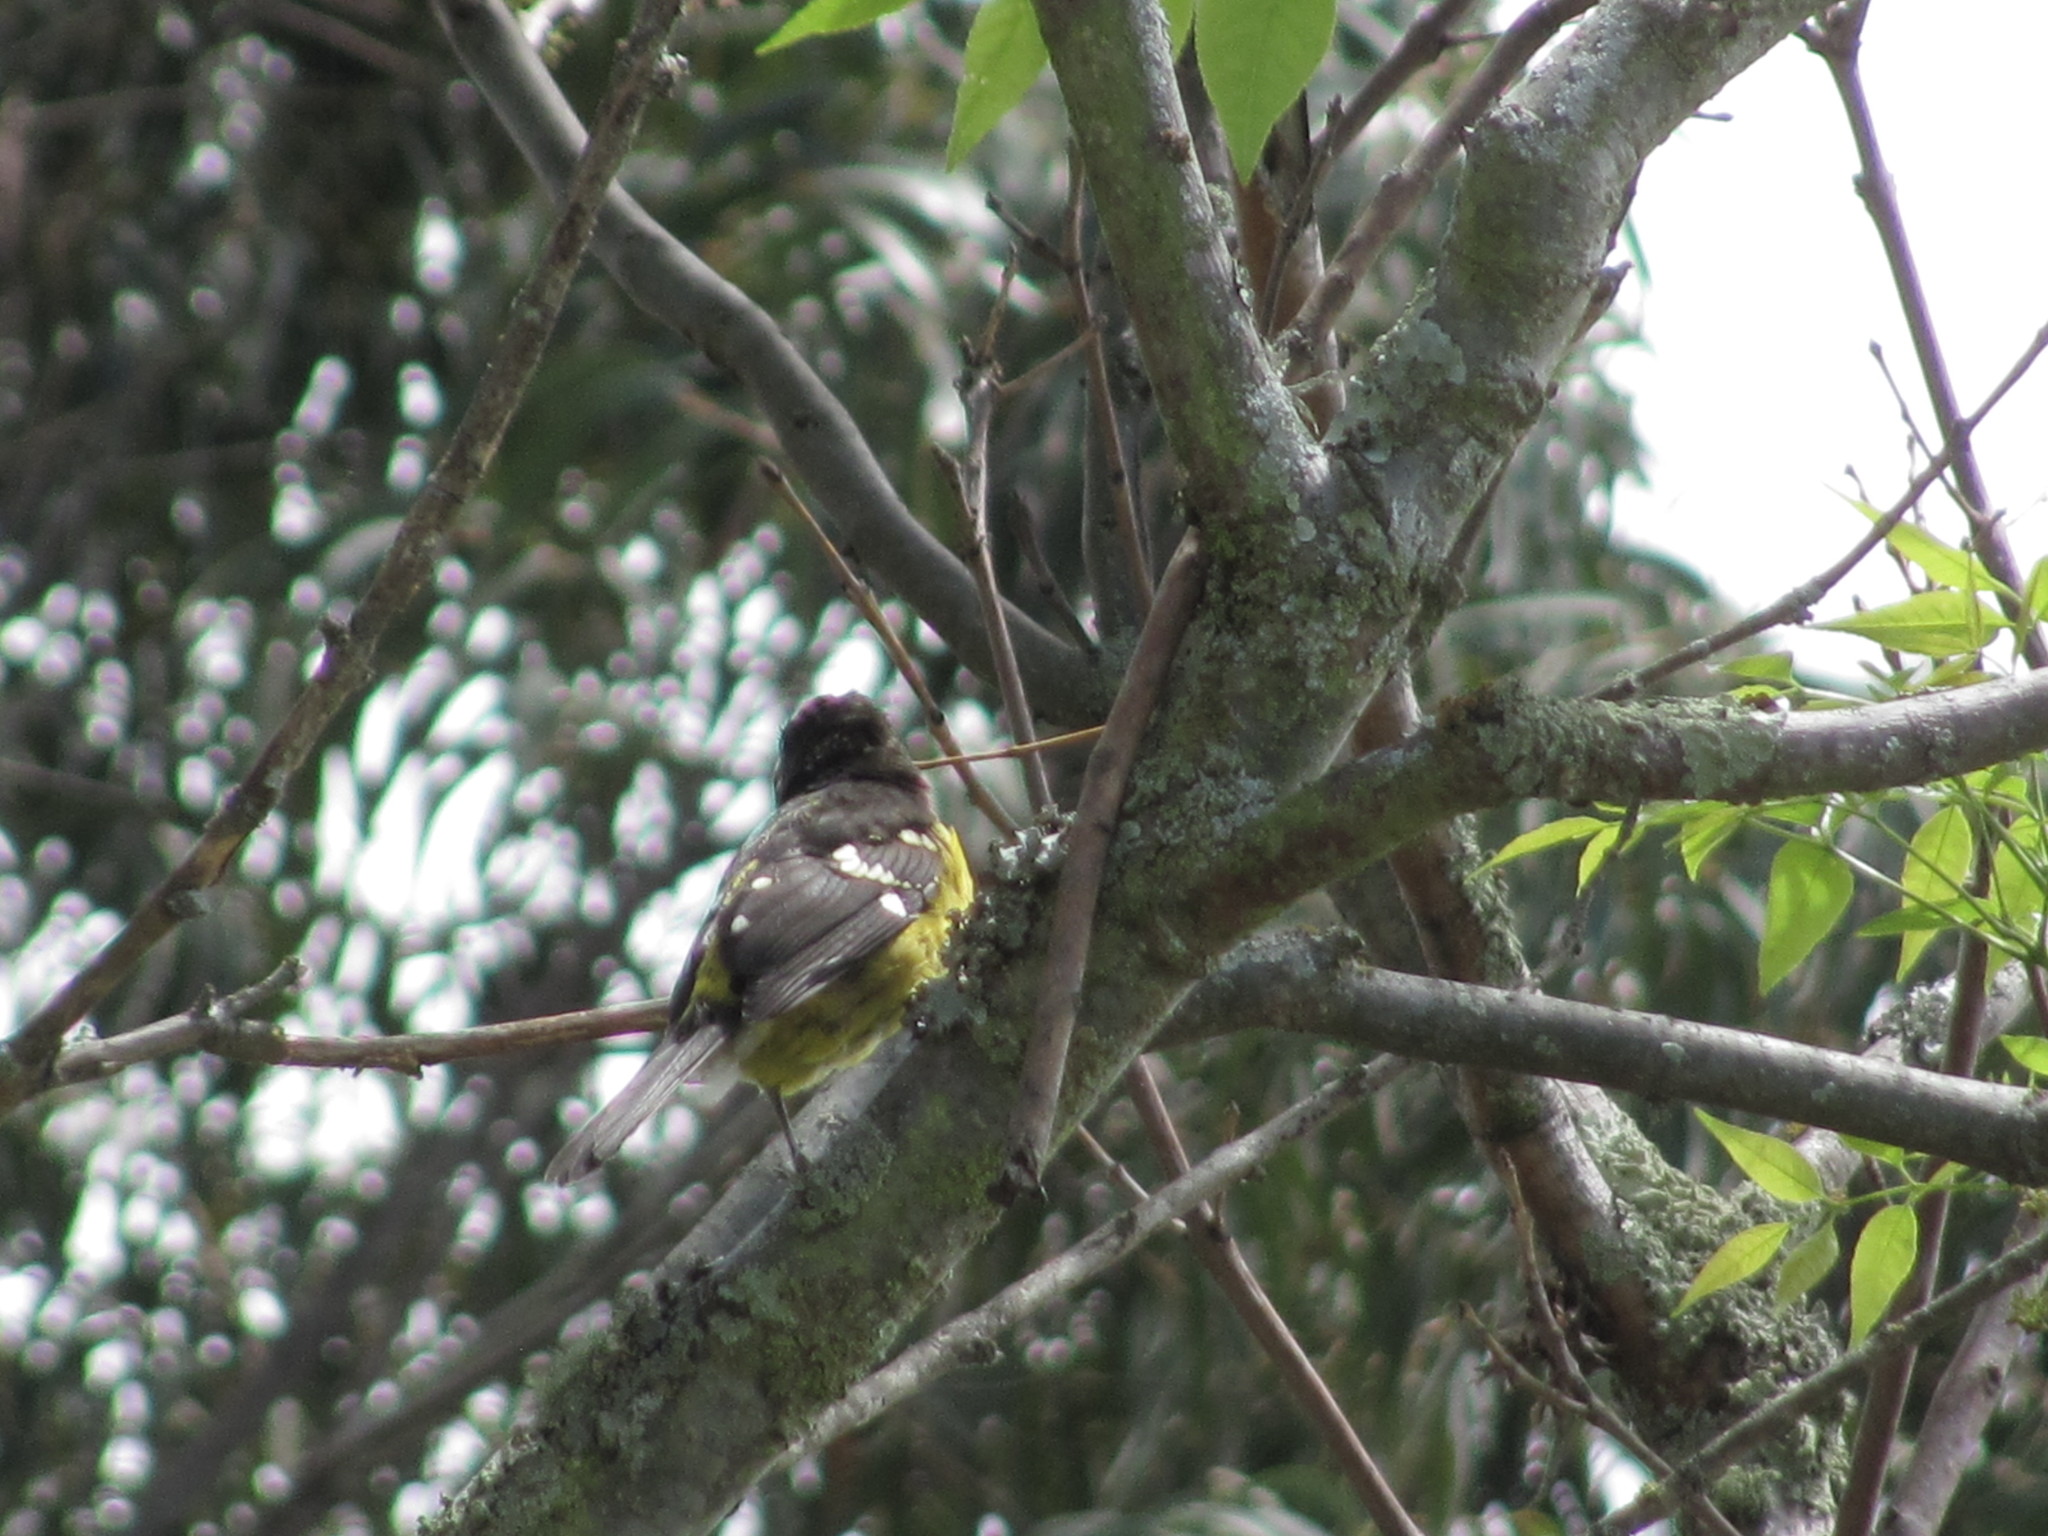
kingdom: Animalia
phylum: Chordata
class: Aves
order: Passeriformes
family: Cardinalidae
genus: Pheucticus
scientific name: Pheucticus aureoventris
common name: Black-backed grosbeak
